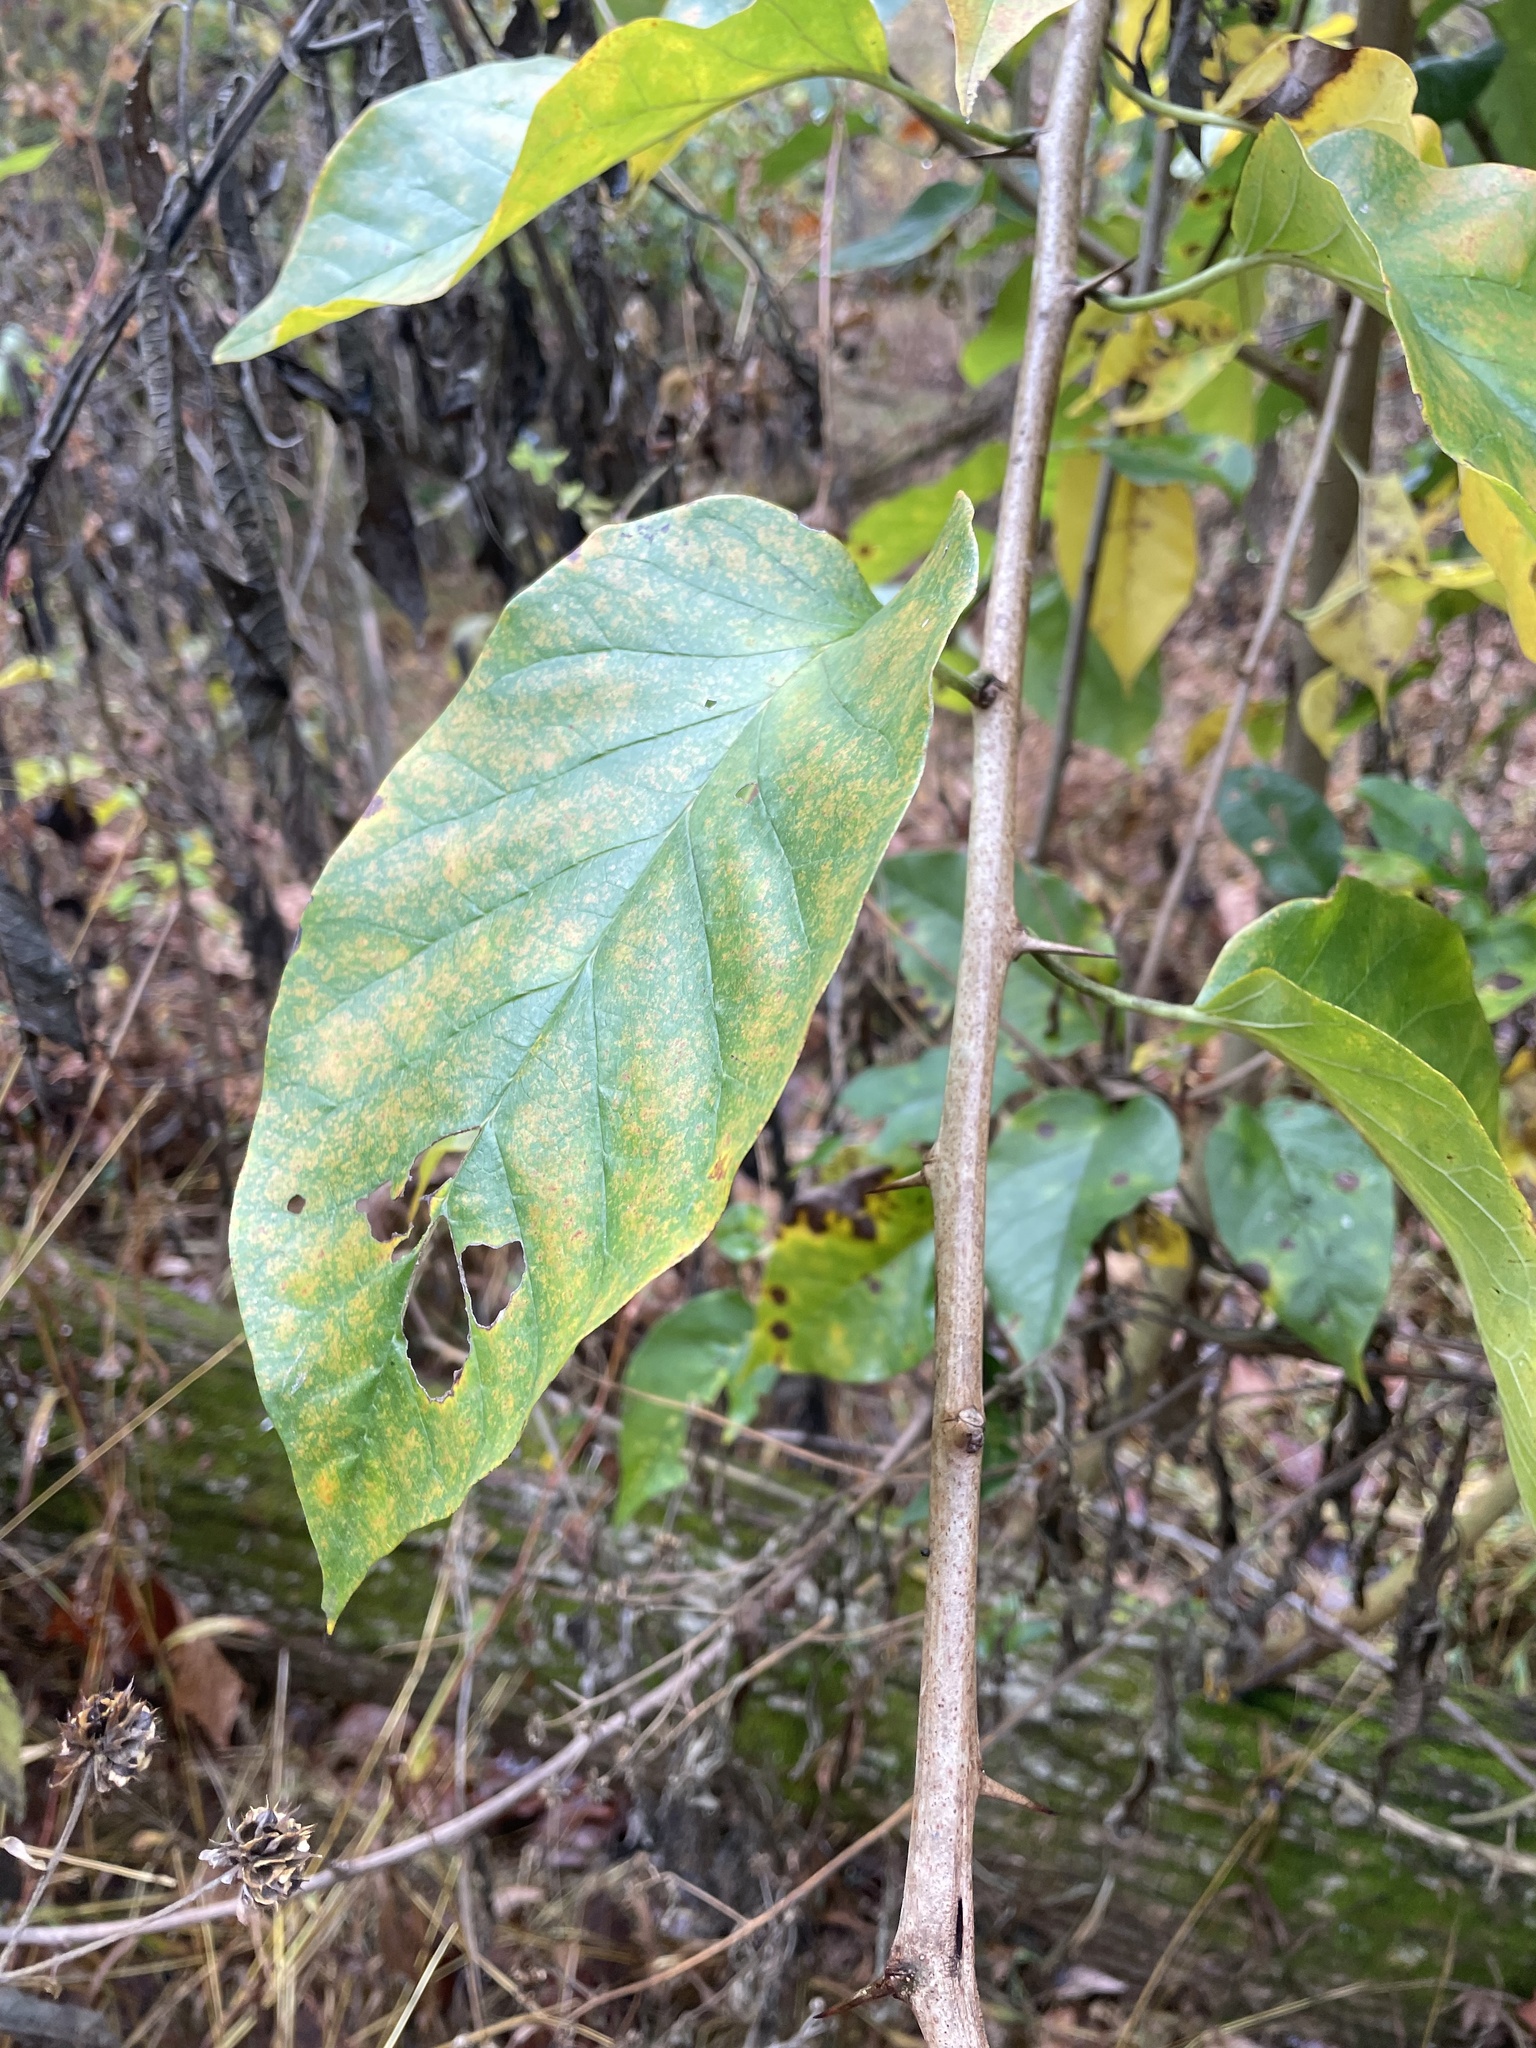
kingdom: Plantae
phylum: Tracheophyta
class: Magnoliopsida
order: Rosales
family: Moraceae
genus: Maclura
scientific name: Maclura pomifera
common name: Osage-orange
